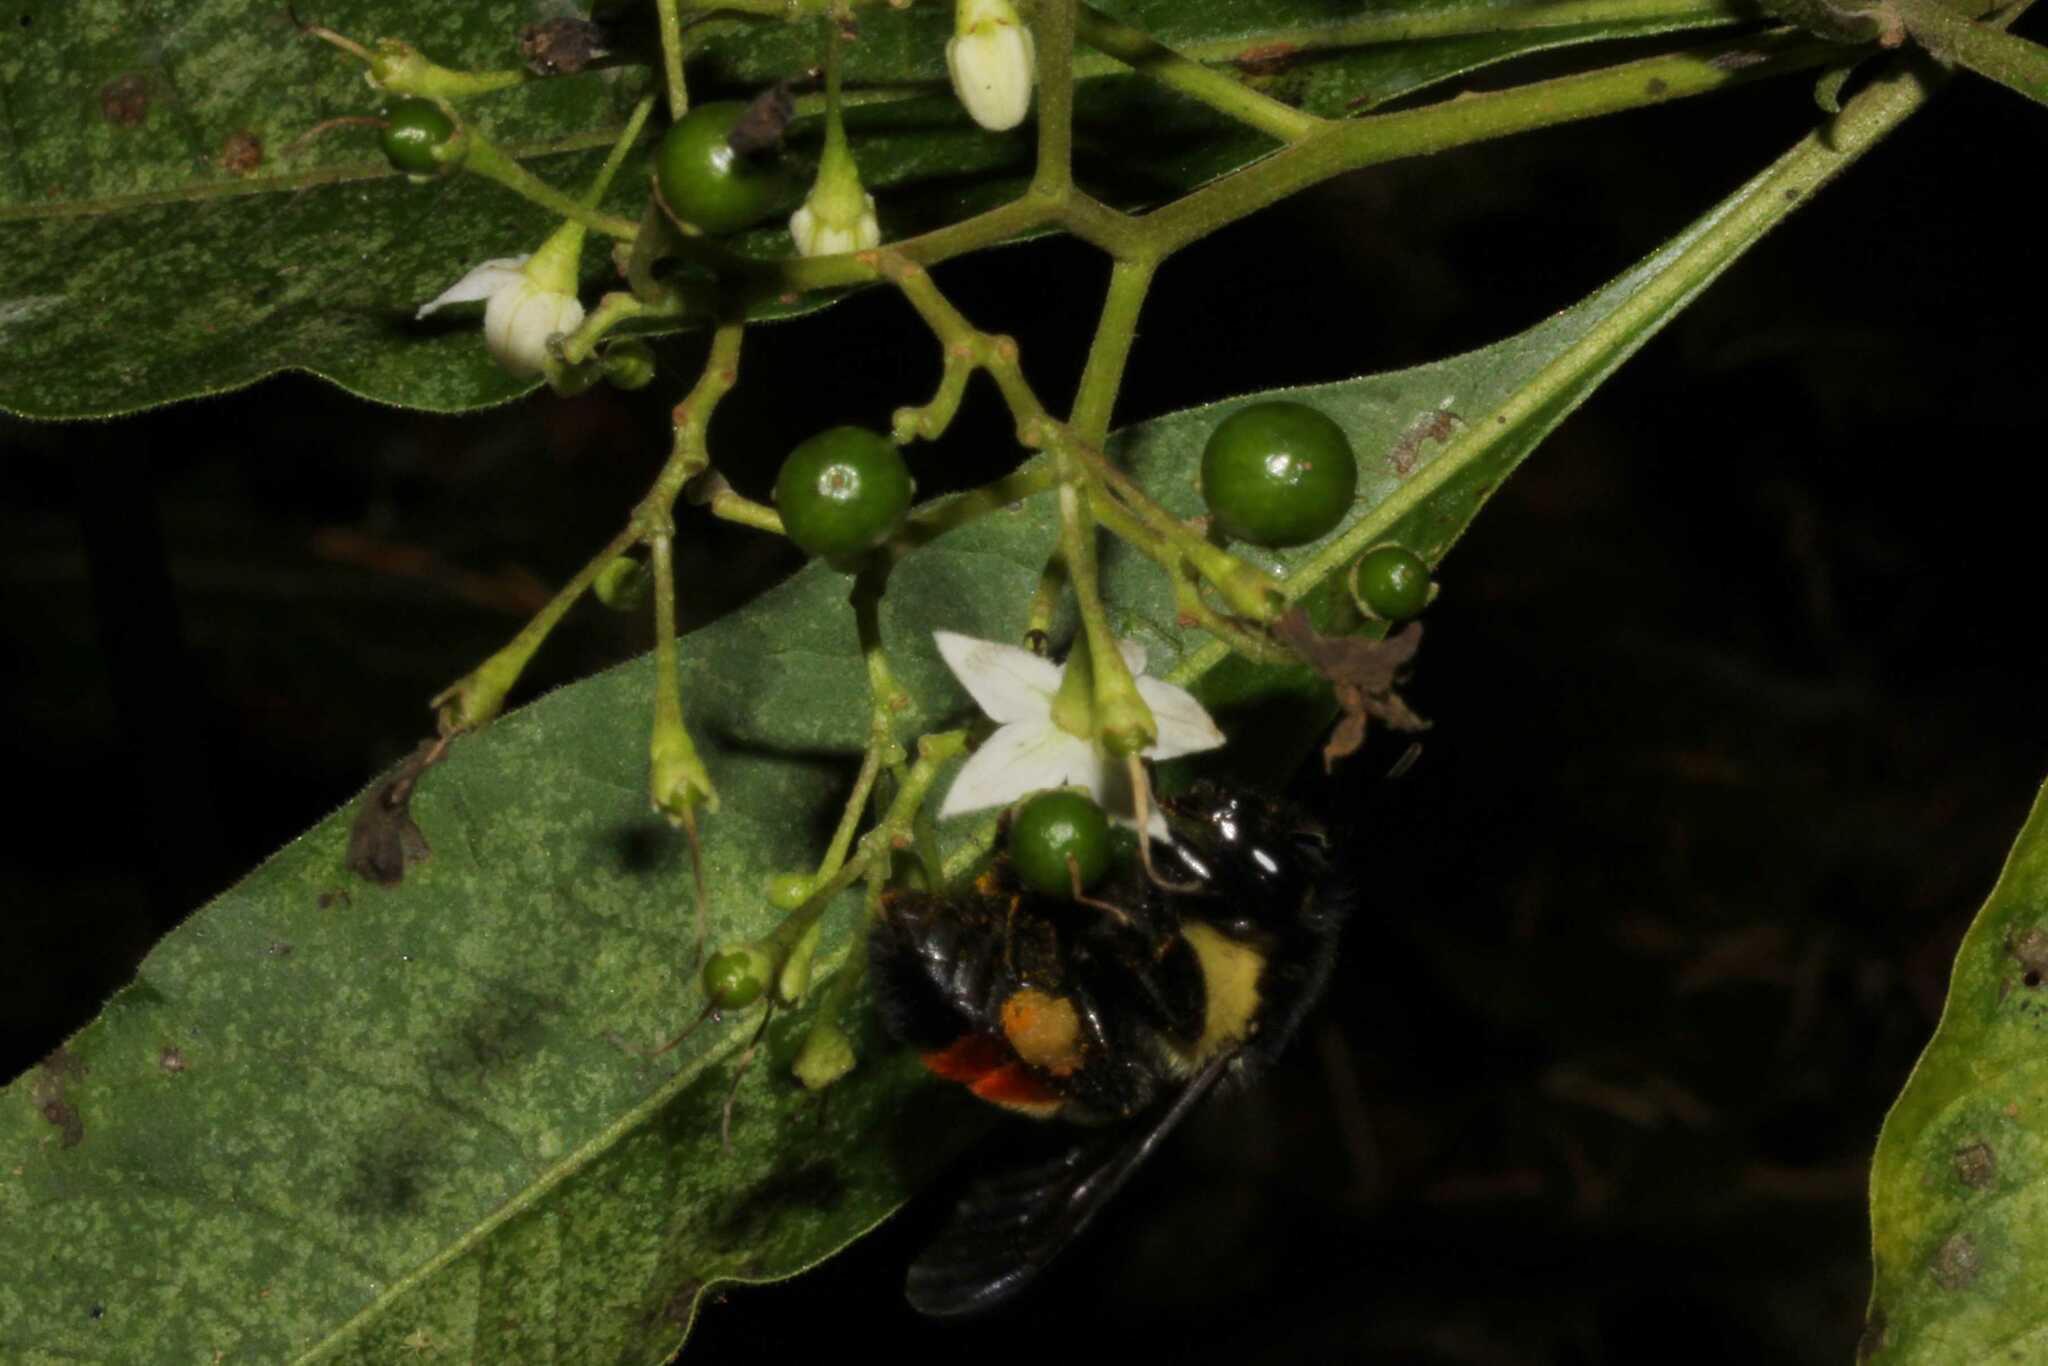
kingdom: Animalia
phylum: Arthropoda
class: Insecta
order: Hymenoptera
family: Apidae
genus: Bombus
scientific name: Bombus ephippiatus
